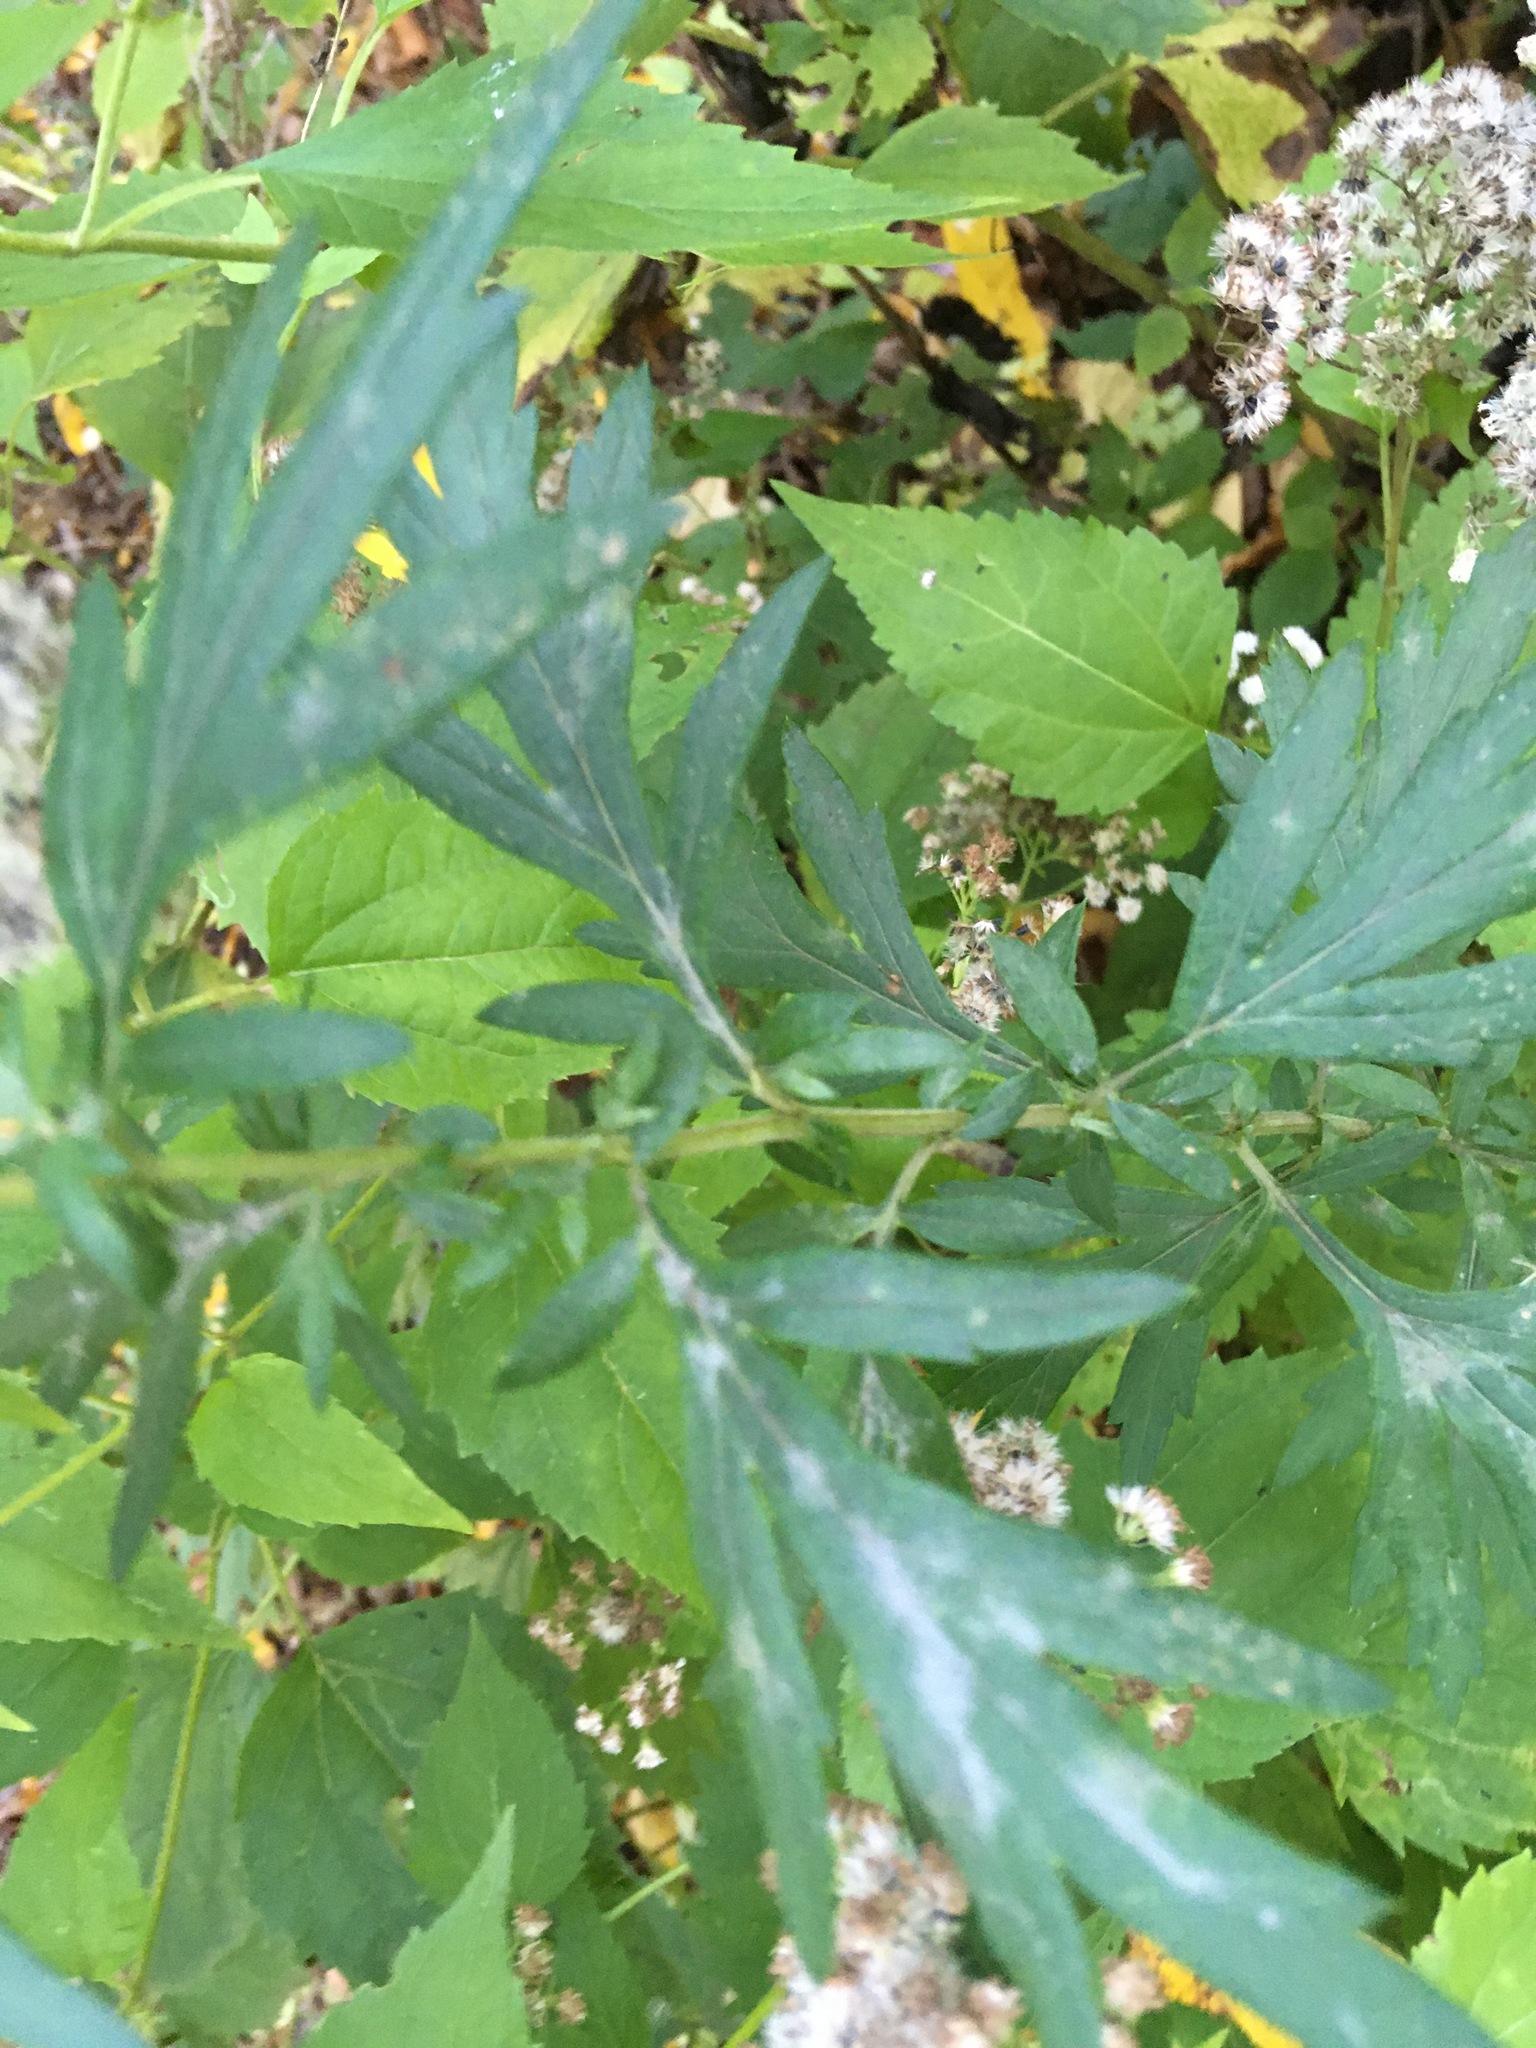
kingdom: Plantae
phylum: Tracheophyta
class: Magnoliopsida
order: Asterales
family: Asteraceae
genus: Artemisia
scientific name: Artemisia vulgaris
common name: Mugwort
